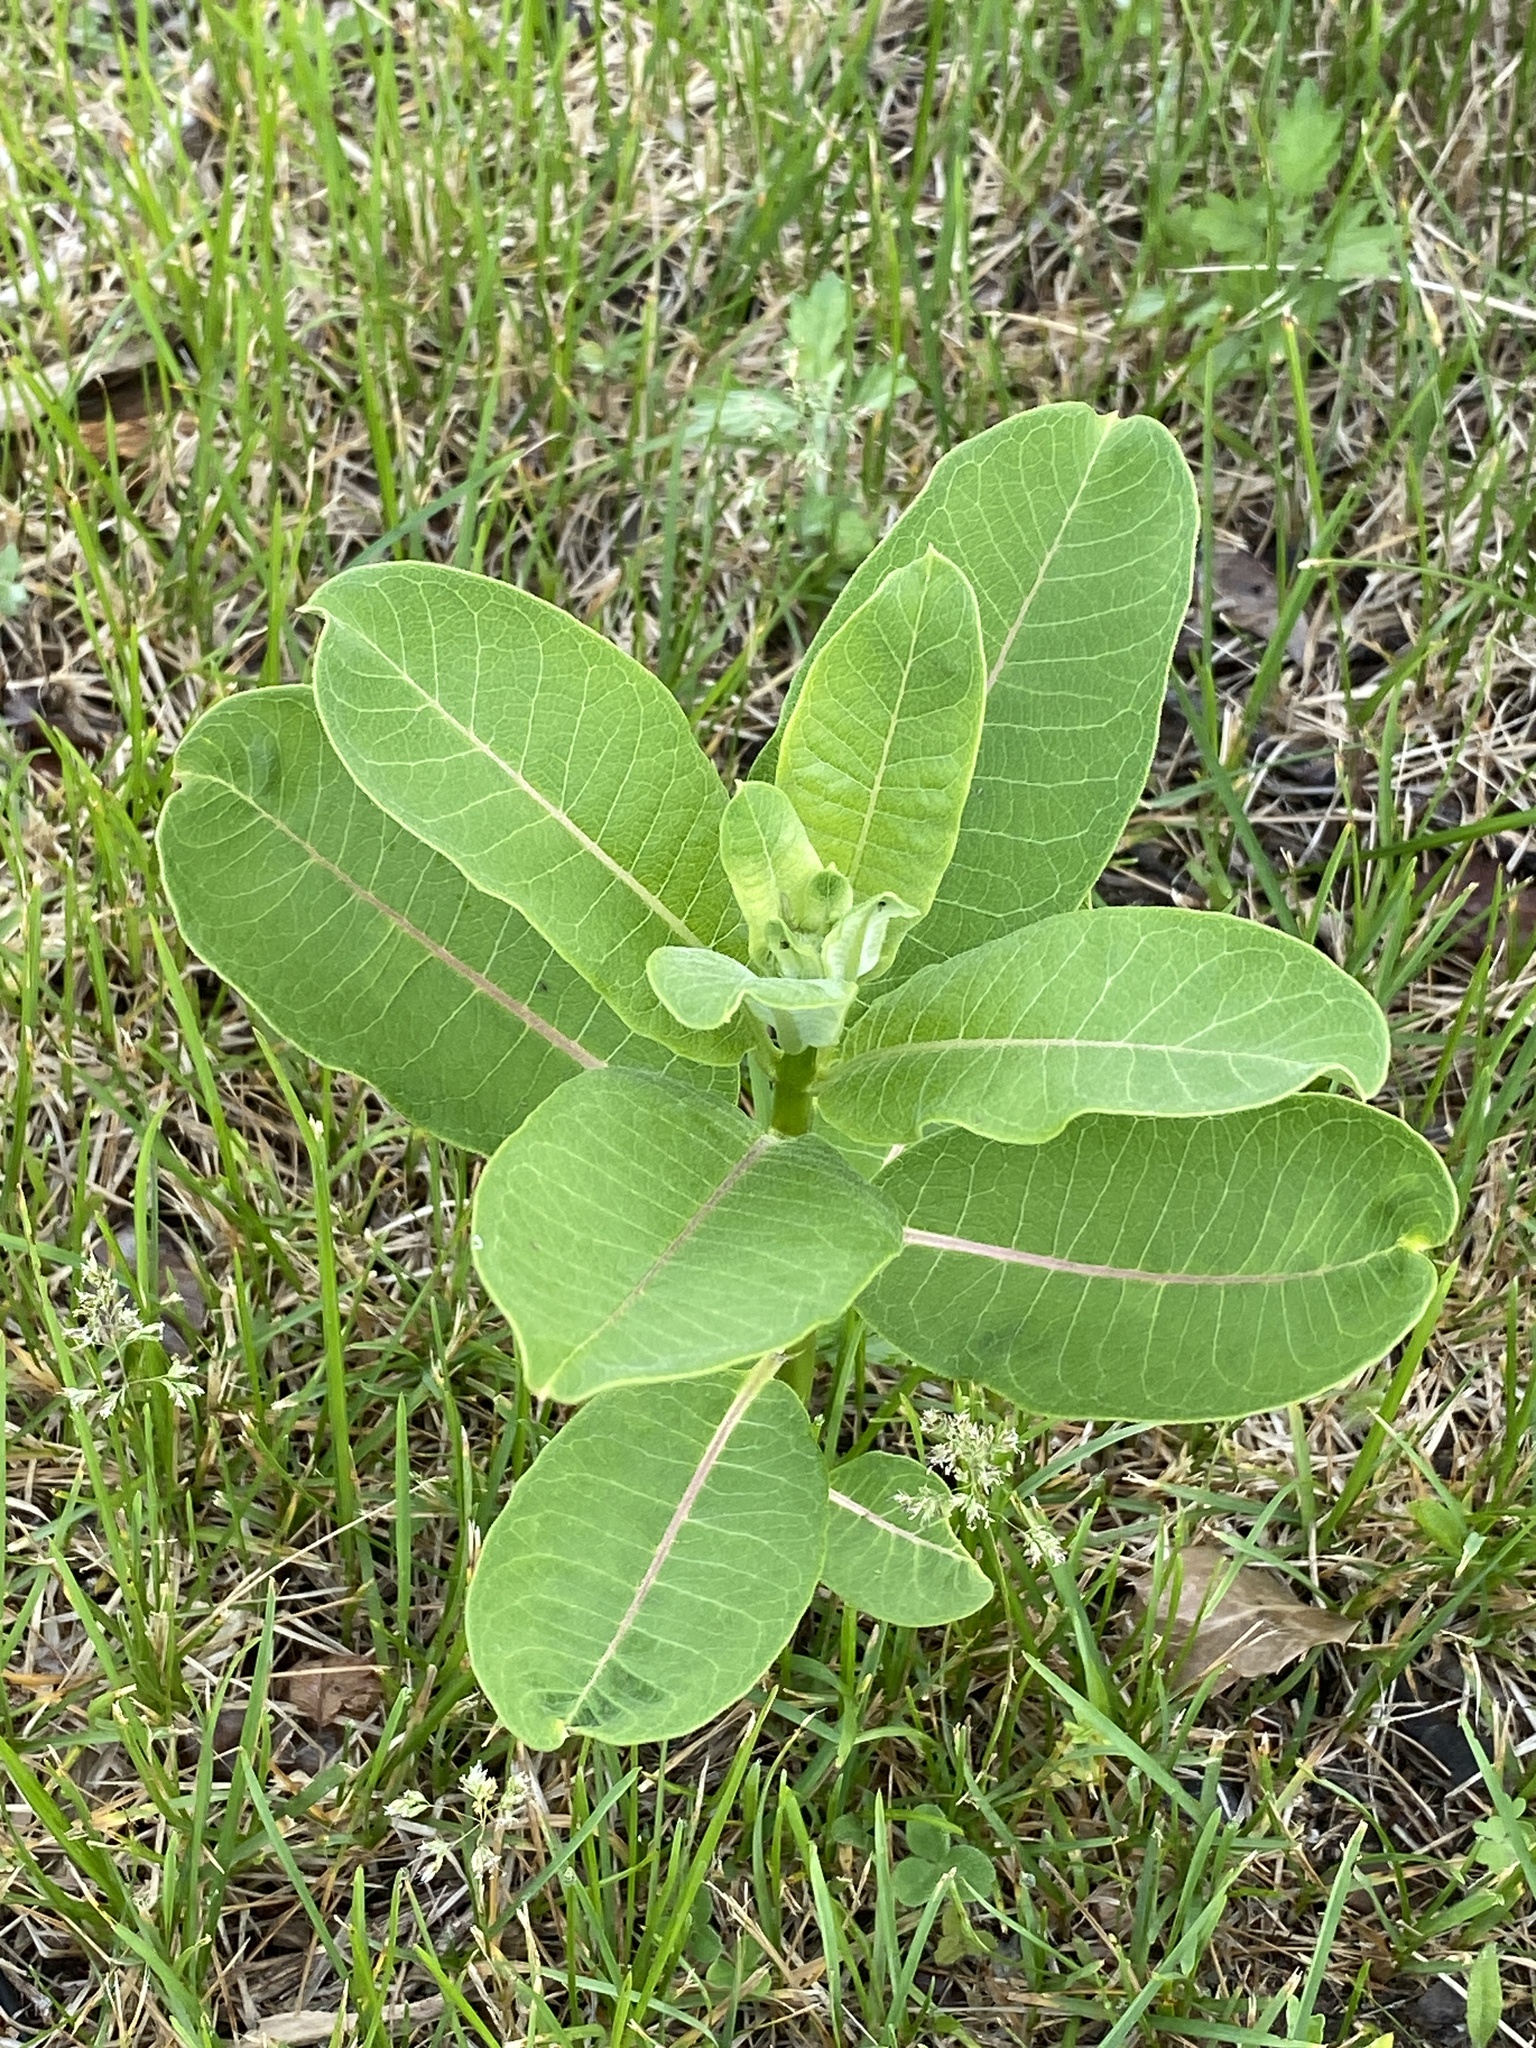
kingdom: Plantae
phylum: Tracheophyta
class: Magnoliopsida
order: Gentianales
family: Apocynaceae
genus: Asclepias
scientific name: Asclepias syriaca
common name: Common milkweed
